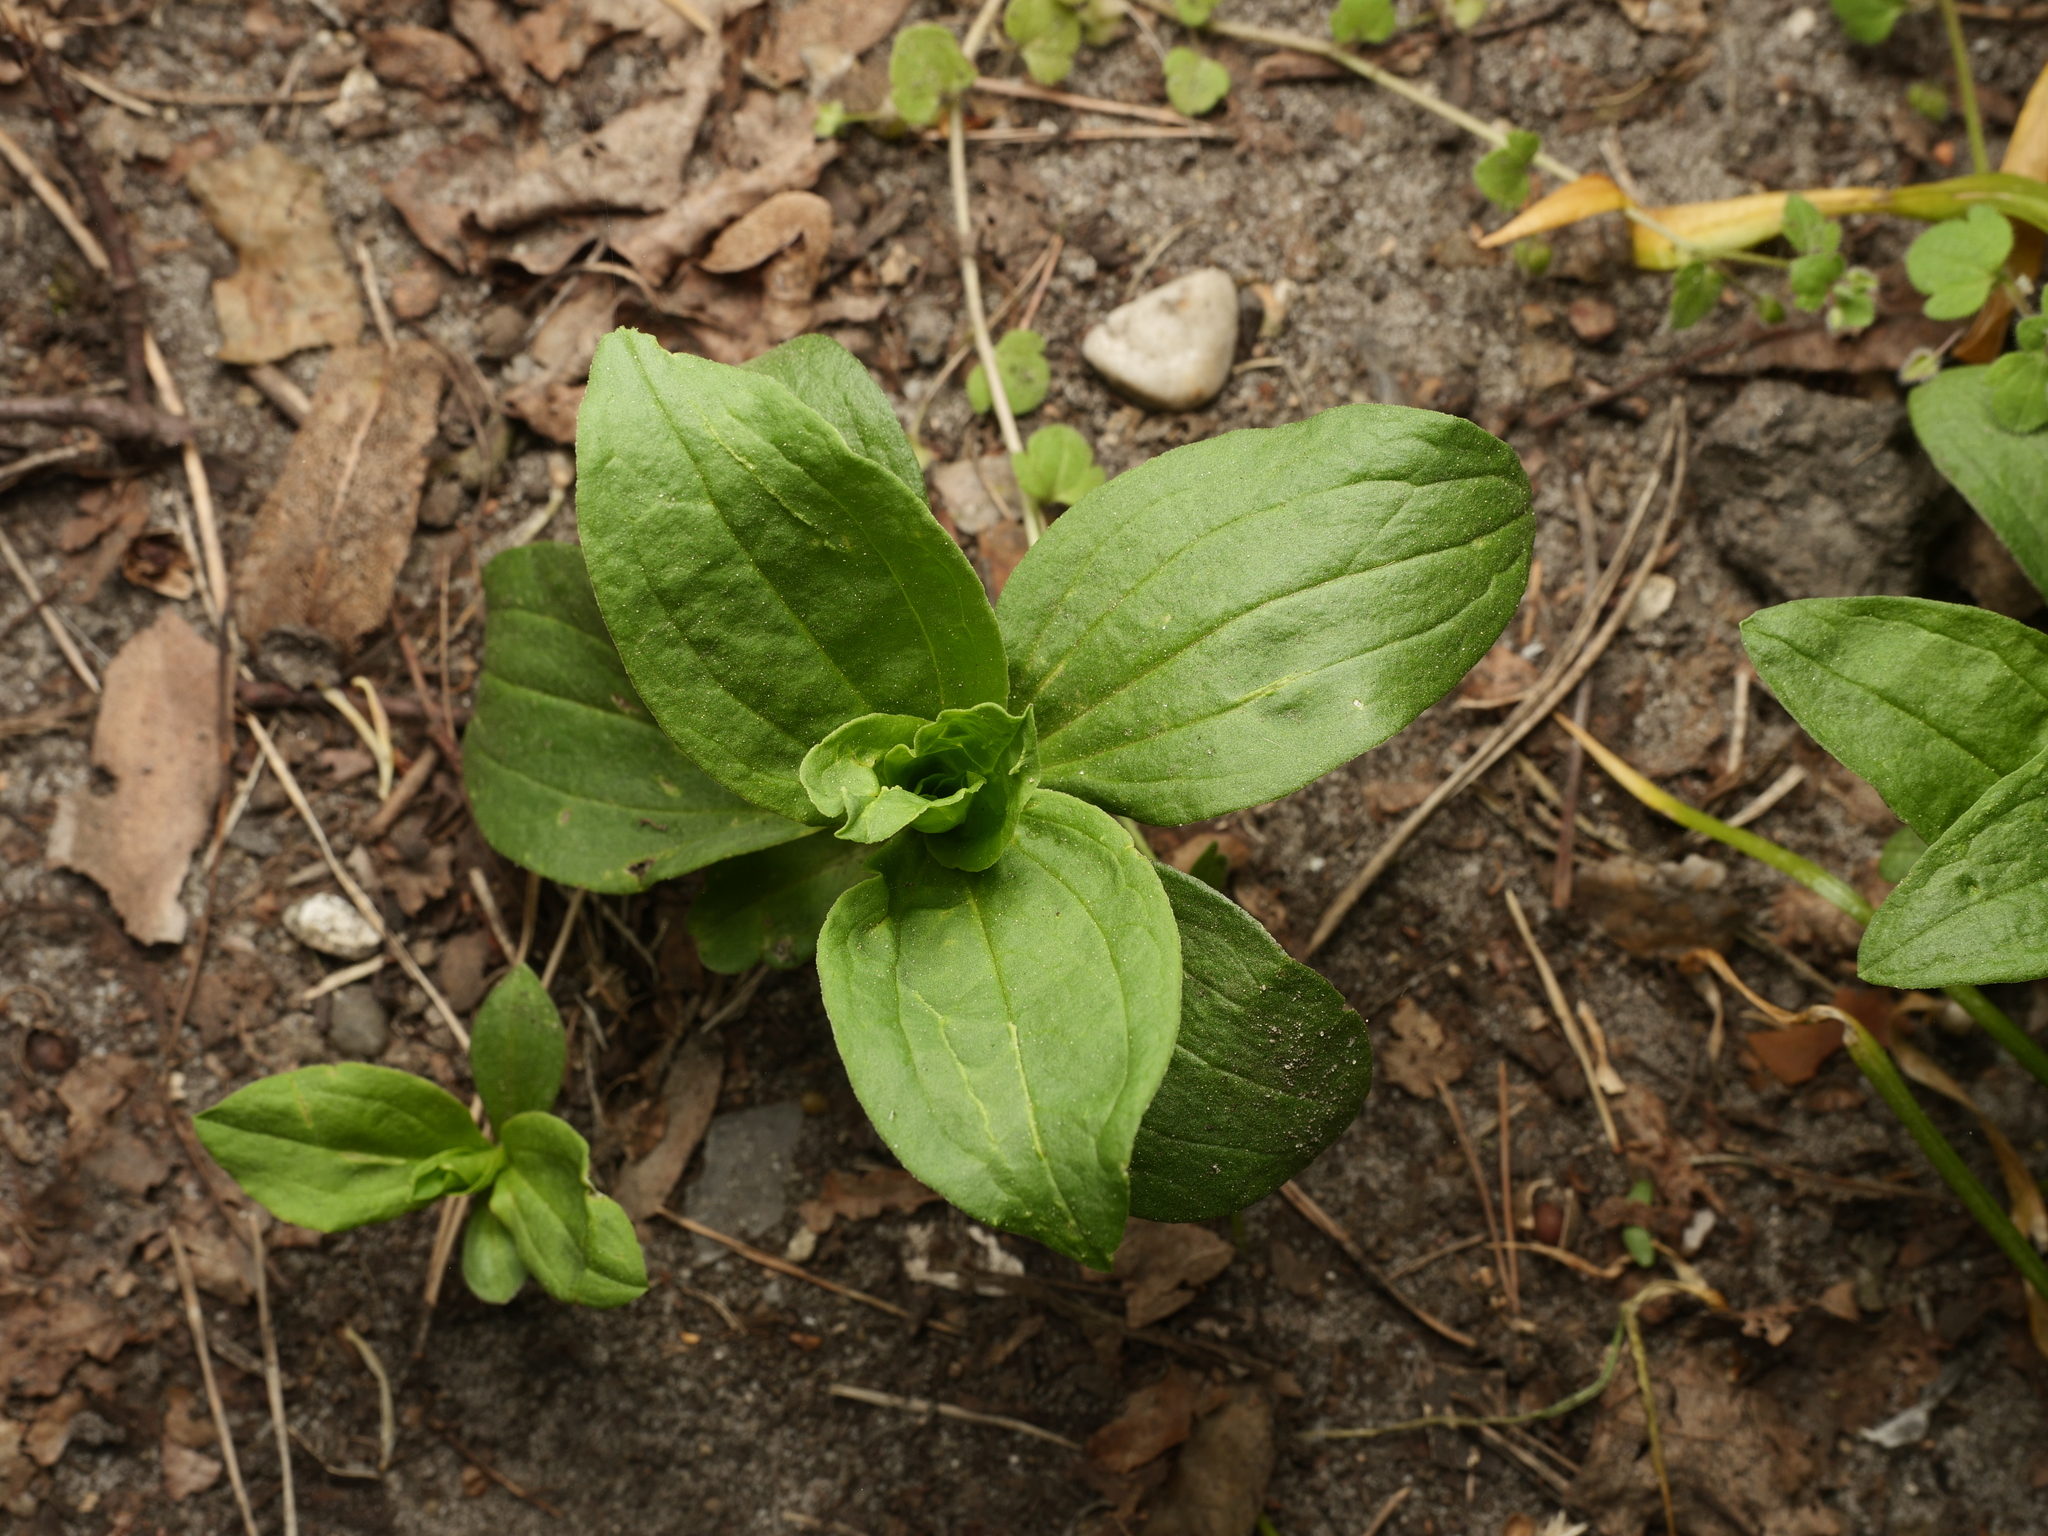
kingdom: Plantae
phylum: Tracheophyta
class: Magnoliopsida
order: Caryophyllales
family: Caryophyllaceae
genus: Saponaria
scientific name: Saponaria officinalis
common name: Soapwort
